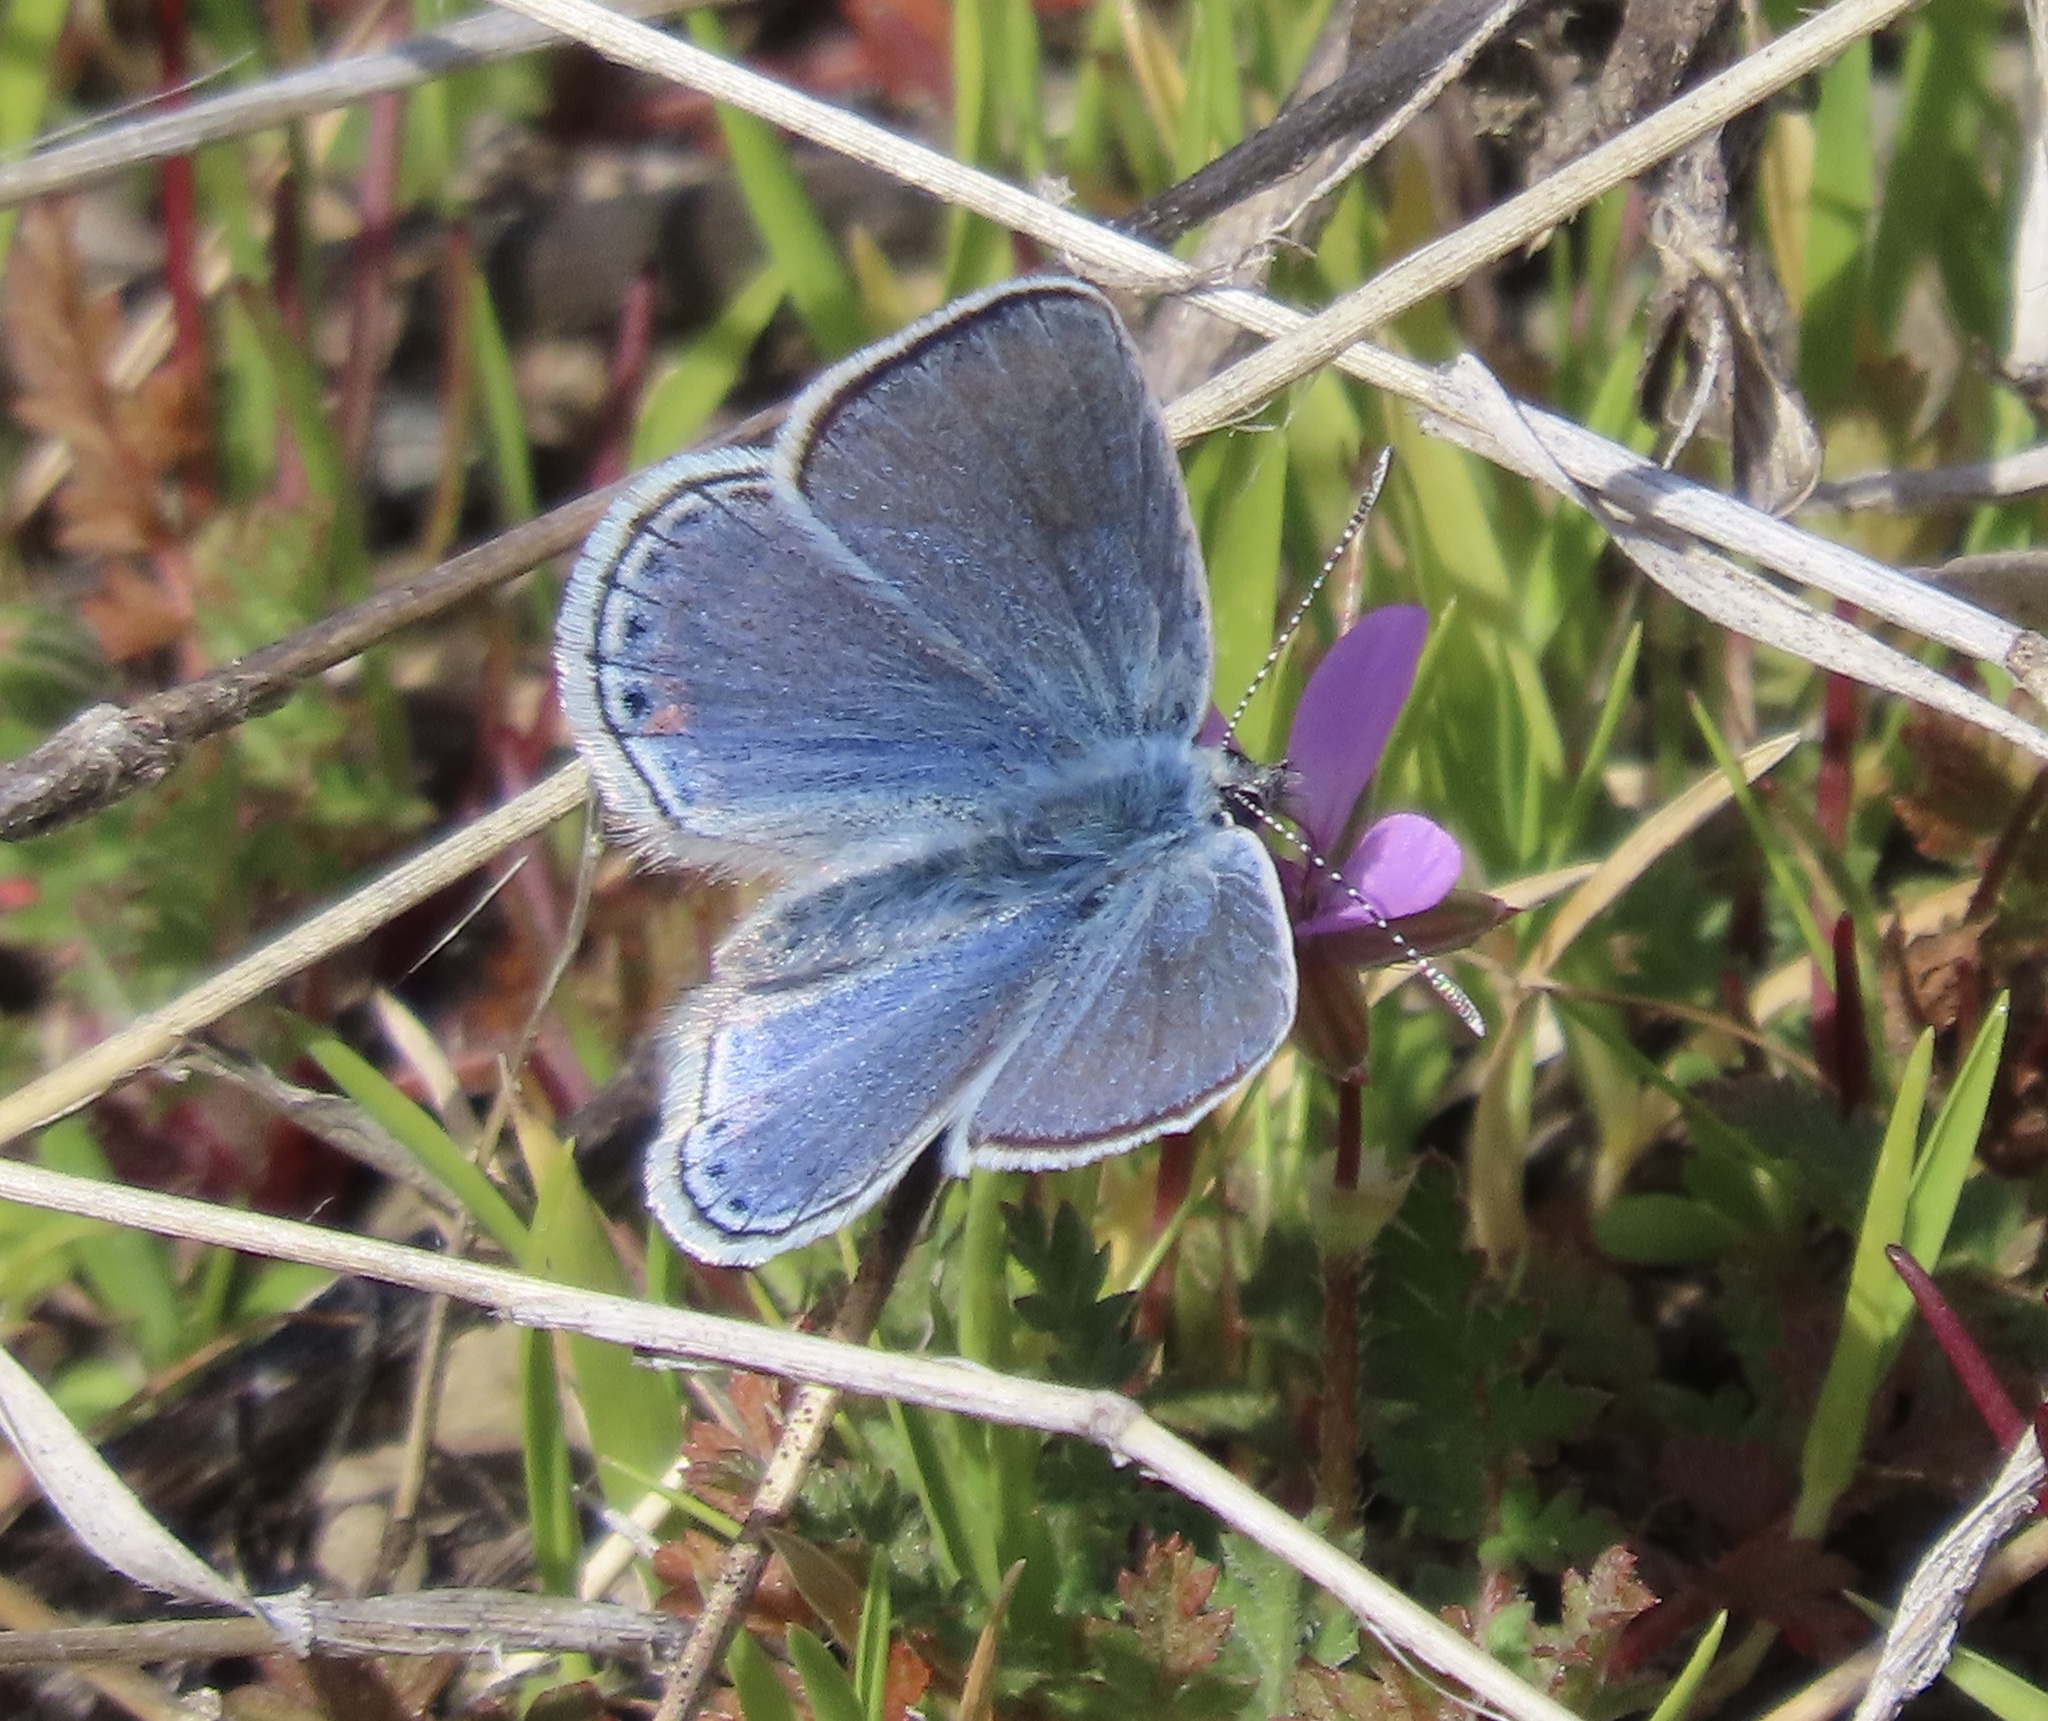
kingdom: Animalia
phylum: Arthropoda
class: Insecta
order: Lepidoptera
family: Lycaenidae
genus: Icaricia
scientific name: Icaricia acmon
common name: Acmon blue
